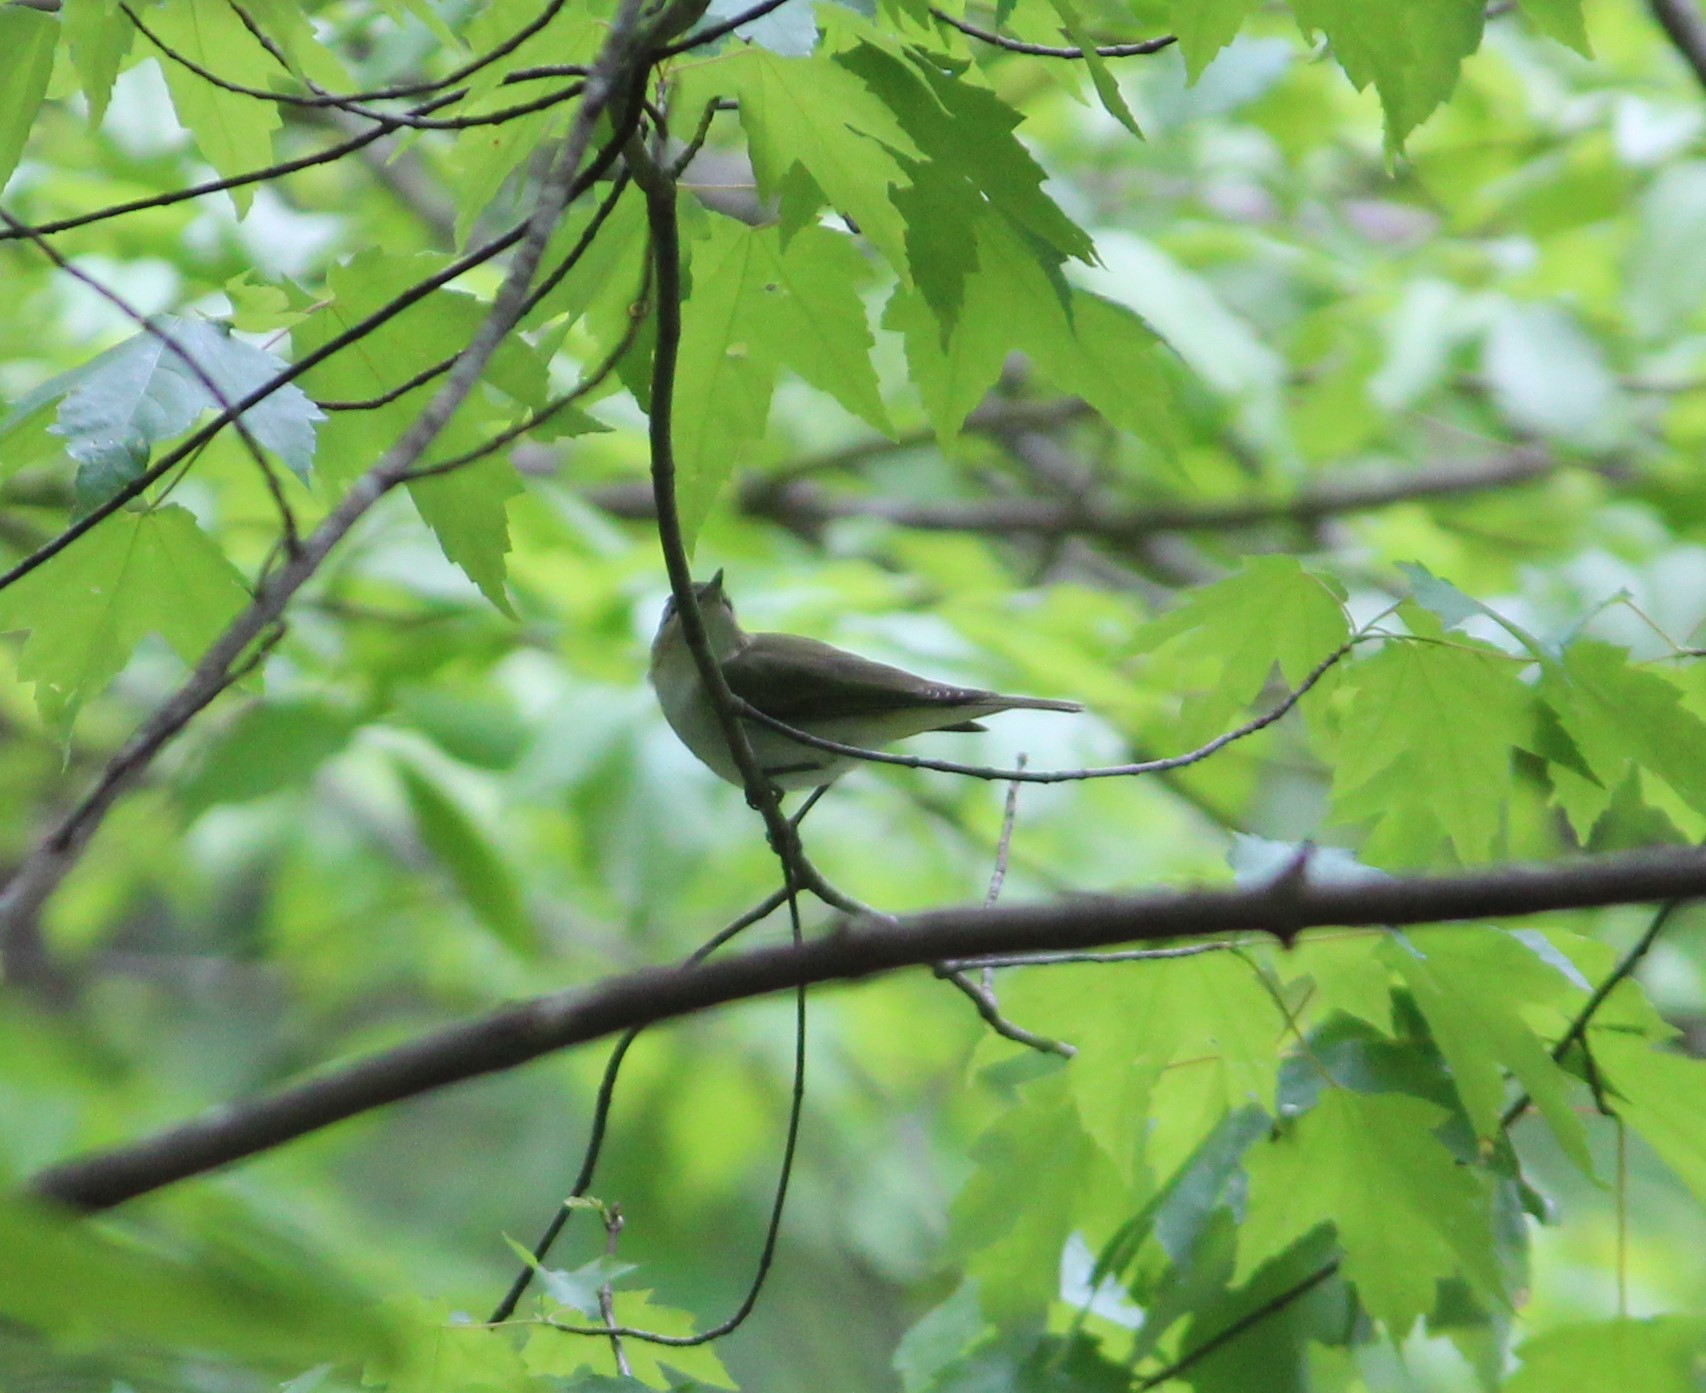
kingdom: Animalia
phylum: Chordata
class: Aves
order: Passeriformes
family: Vireonidae
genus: Vireo
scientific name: Vireo olivaceus
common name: Red-eyed vireo
